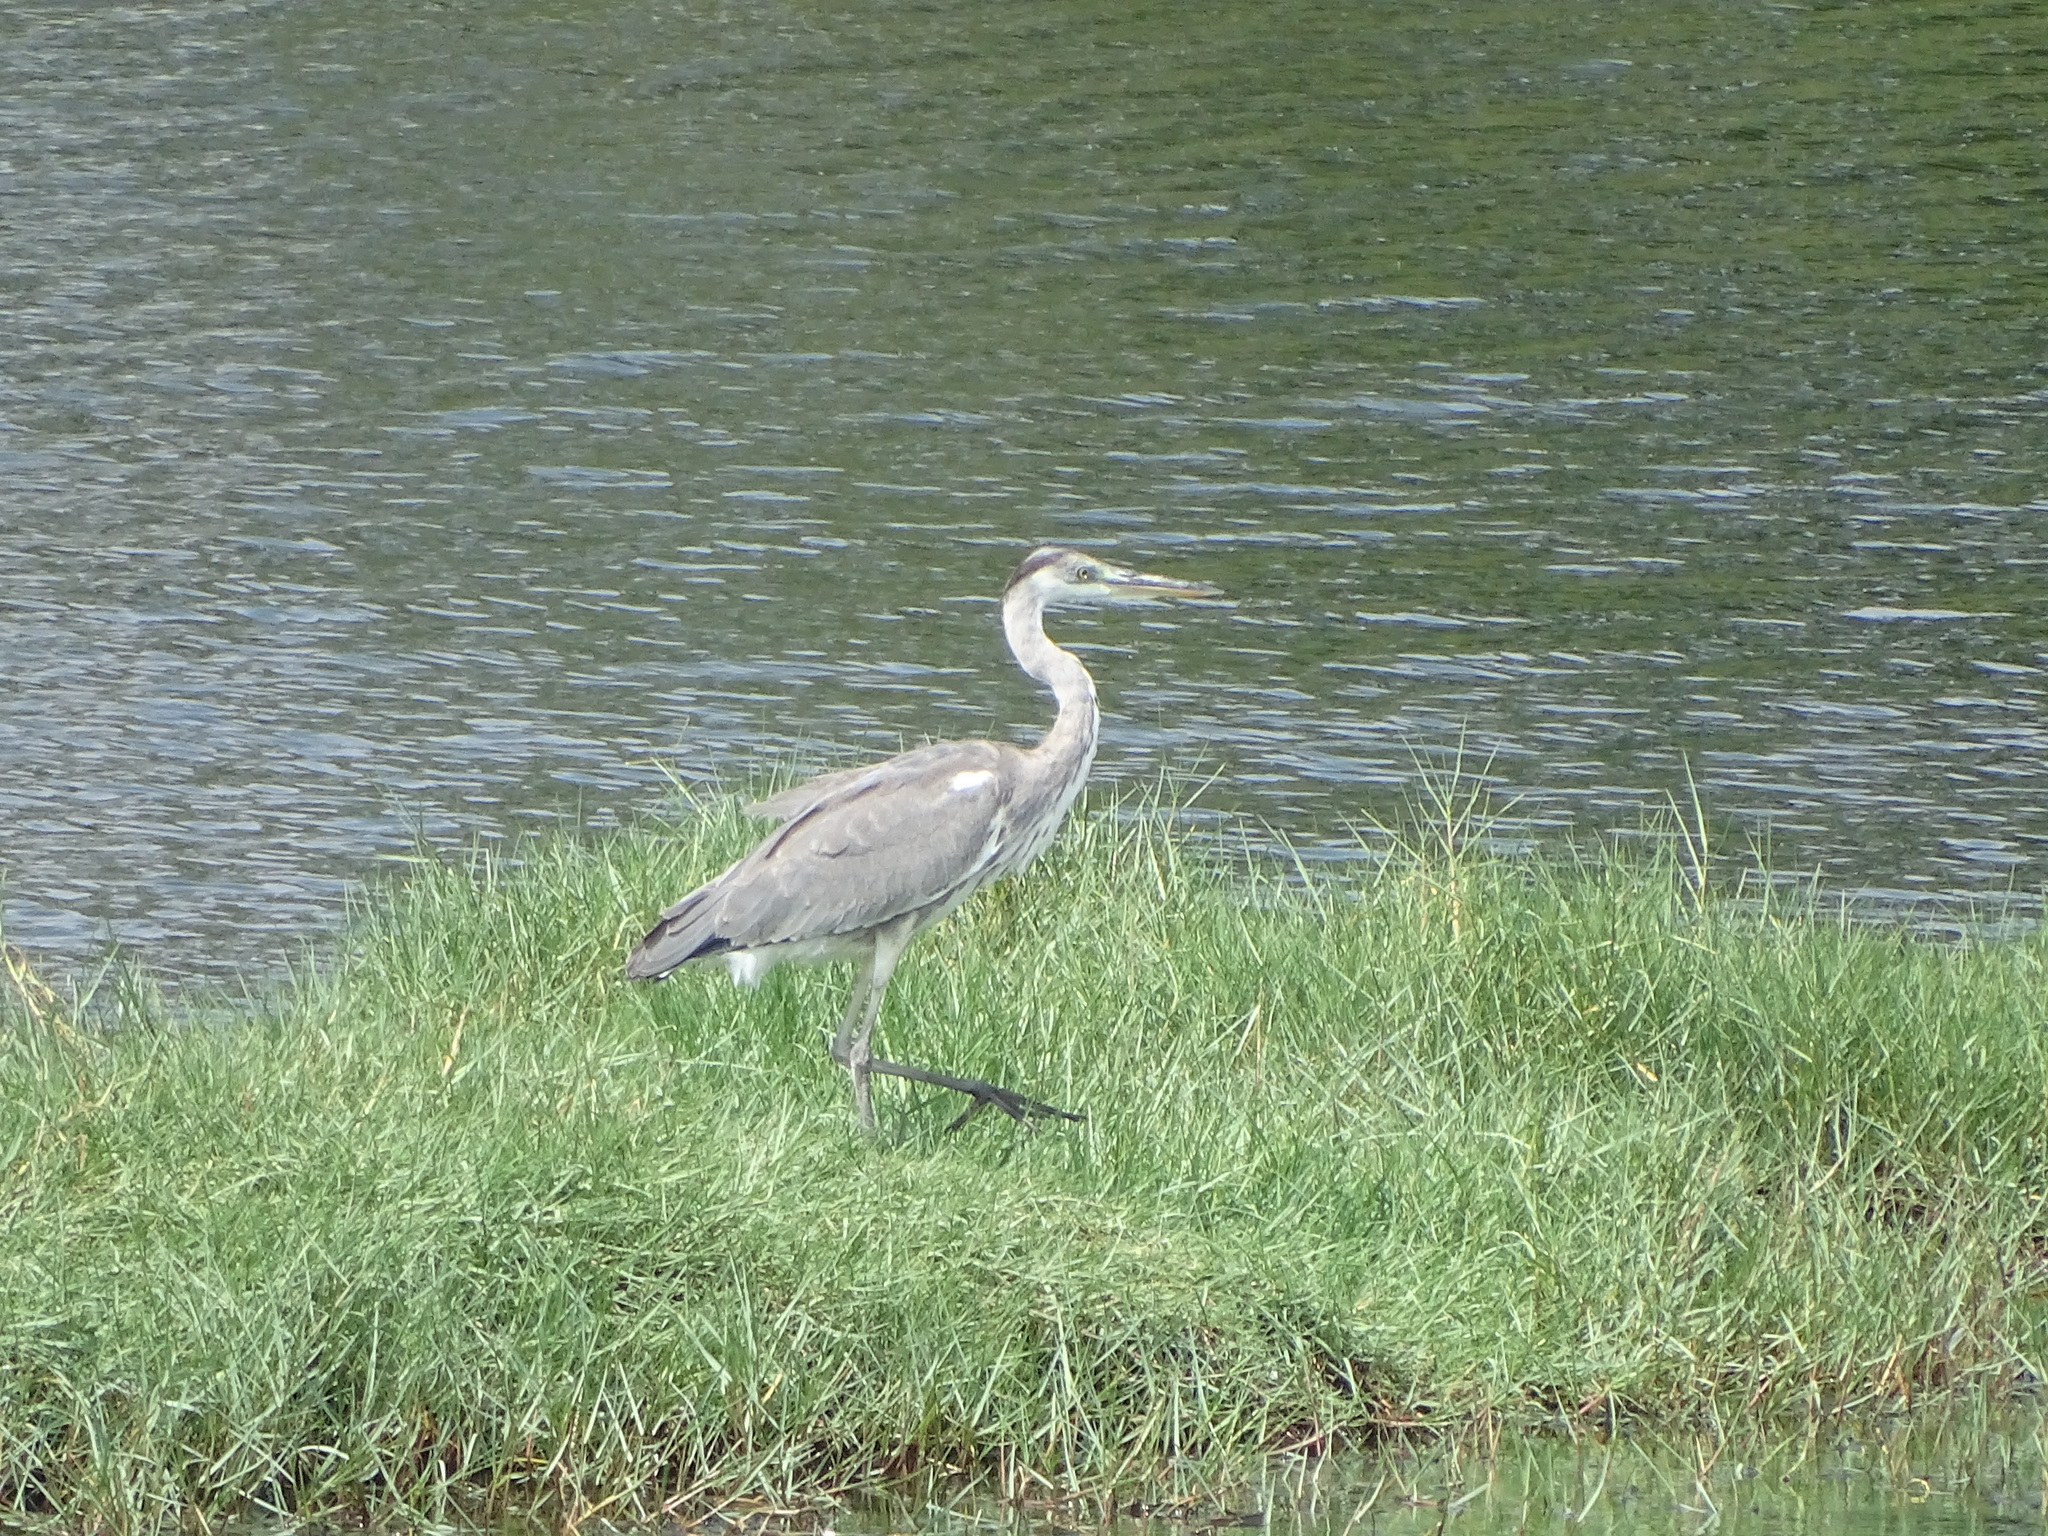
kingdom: Animalia
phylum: Chordata
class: Aves
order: Pelecaniformes
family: Ardeidae
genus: Ardea
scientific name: Ardea cinerea
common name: Grey heron
